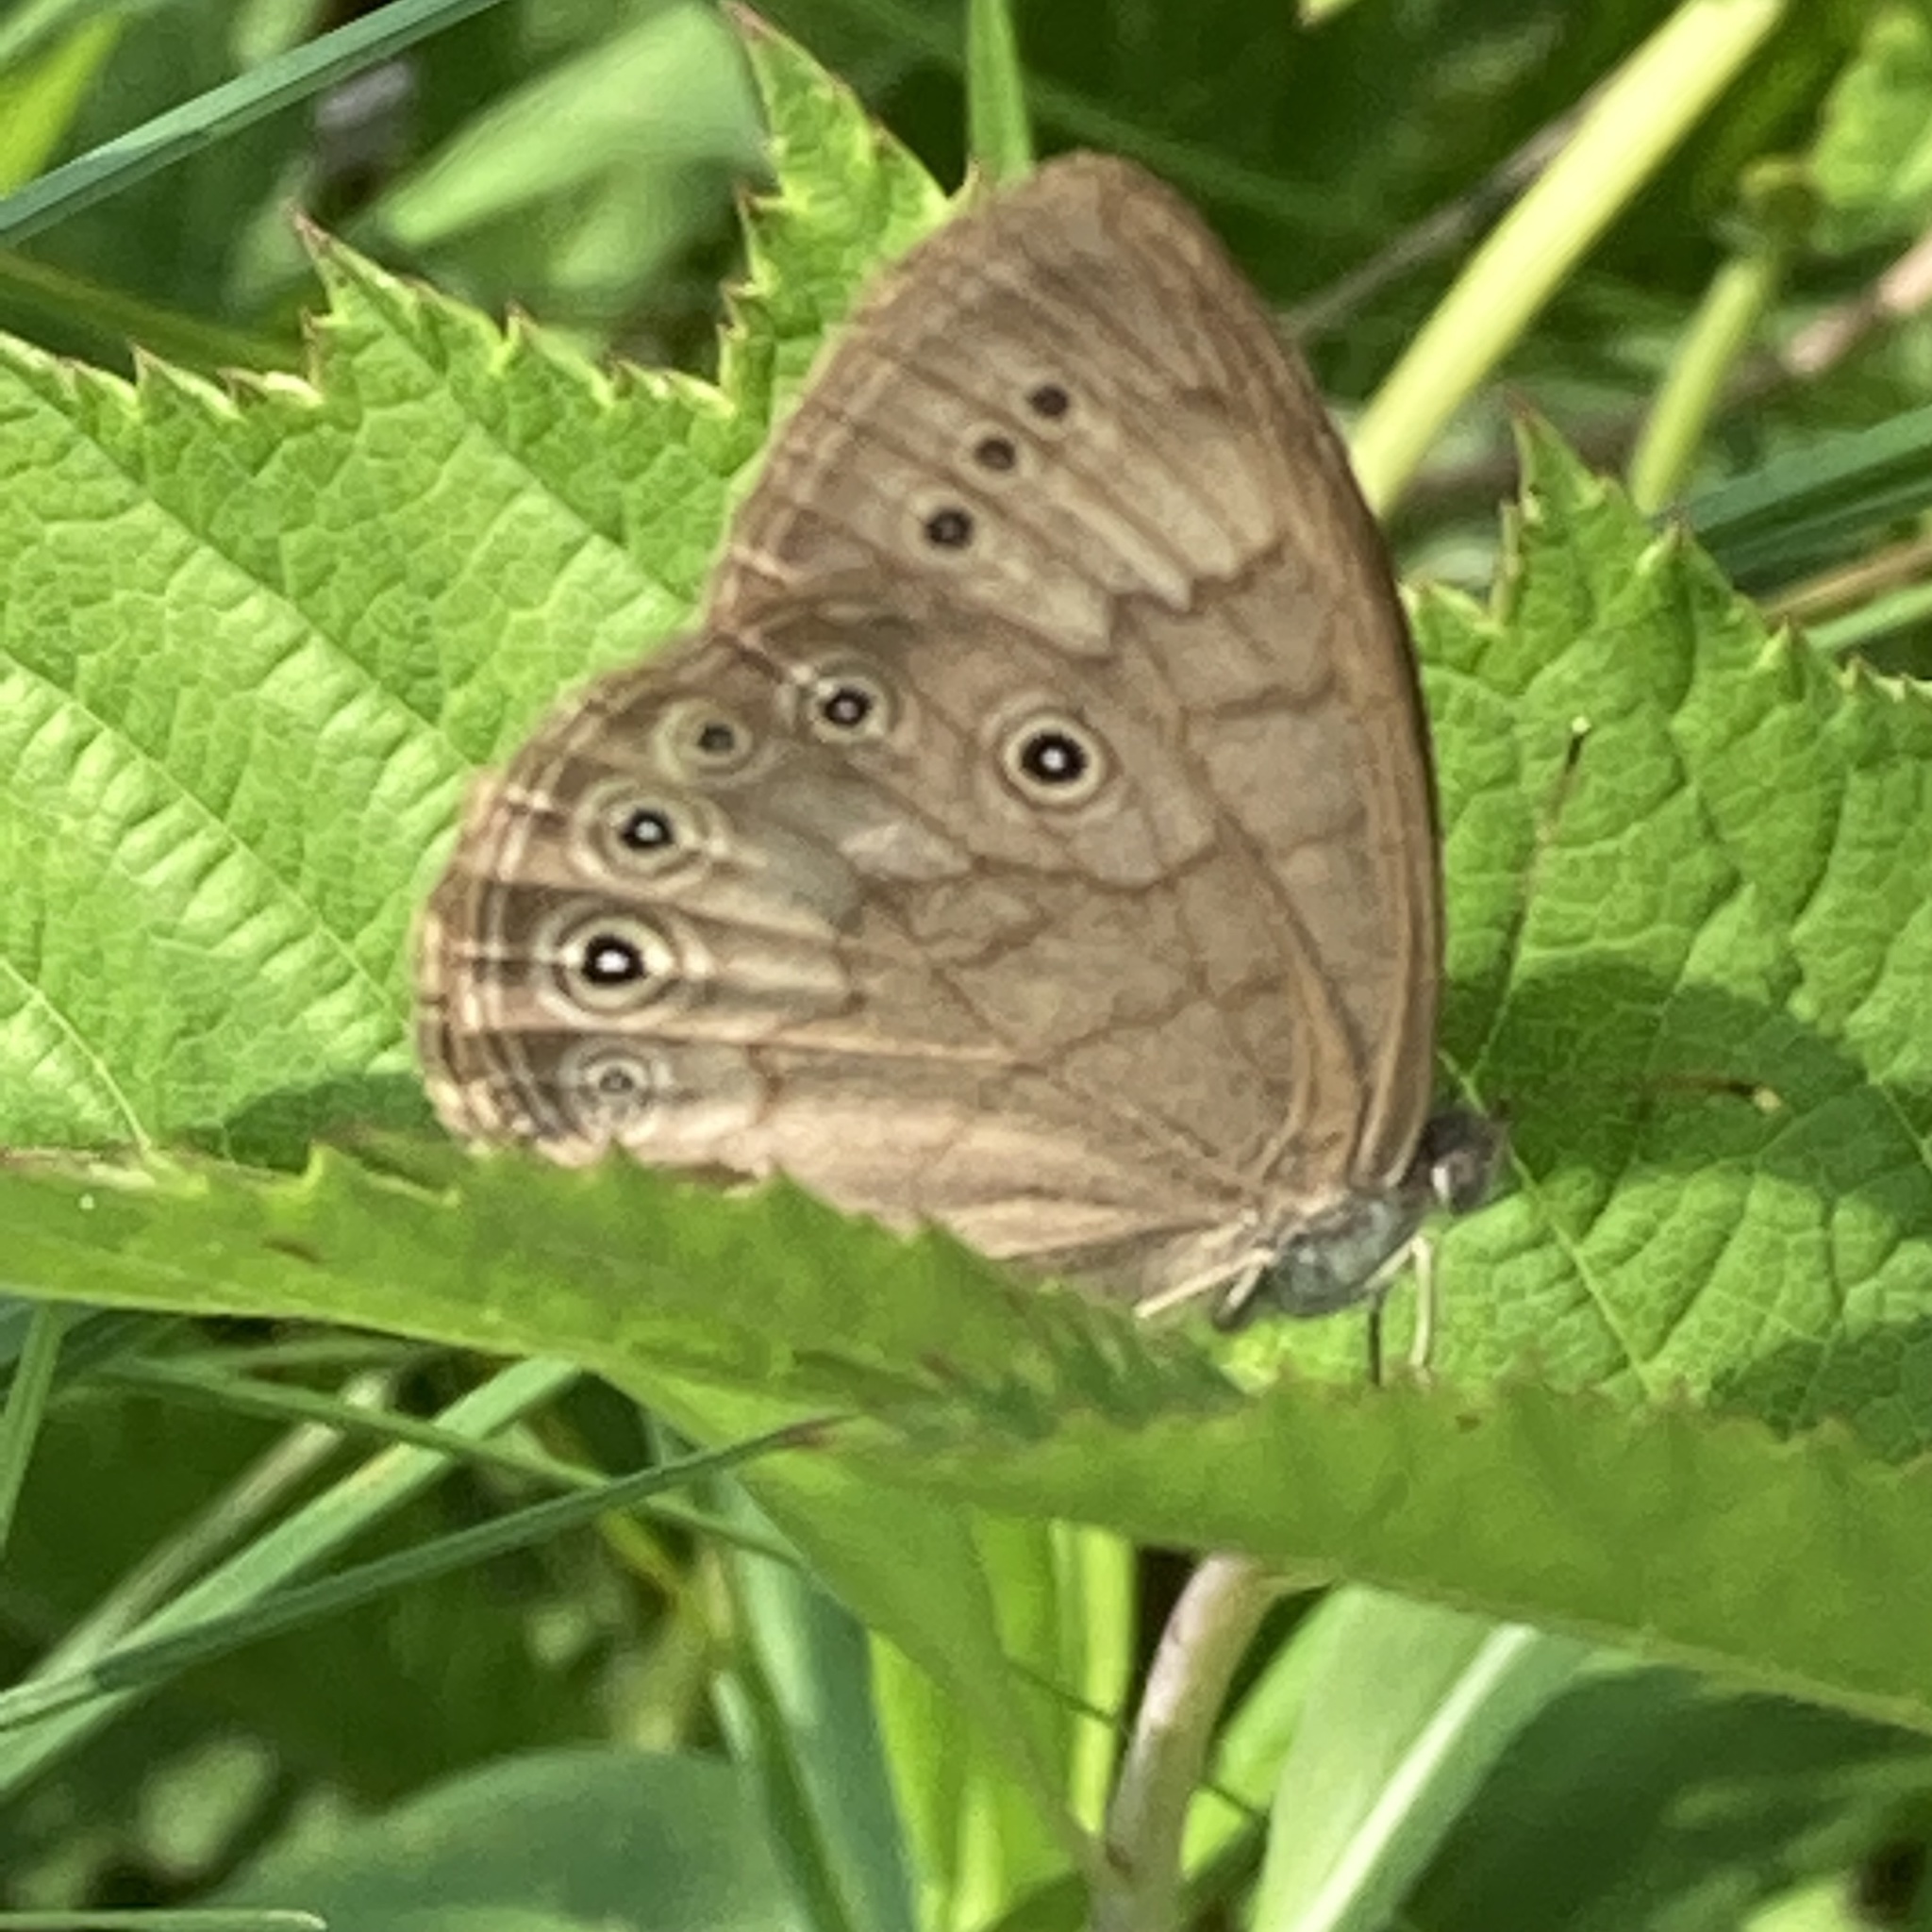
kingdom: Animalia
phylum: Arthropoda
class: Insecta
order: Lepidoptera
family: Nymphalidae
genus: Lethe
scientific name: Lethe eurydice
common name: Eyed brown
